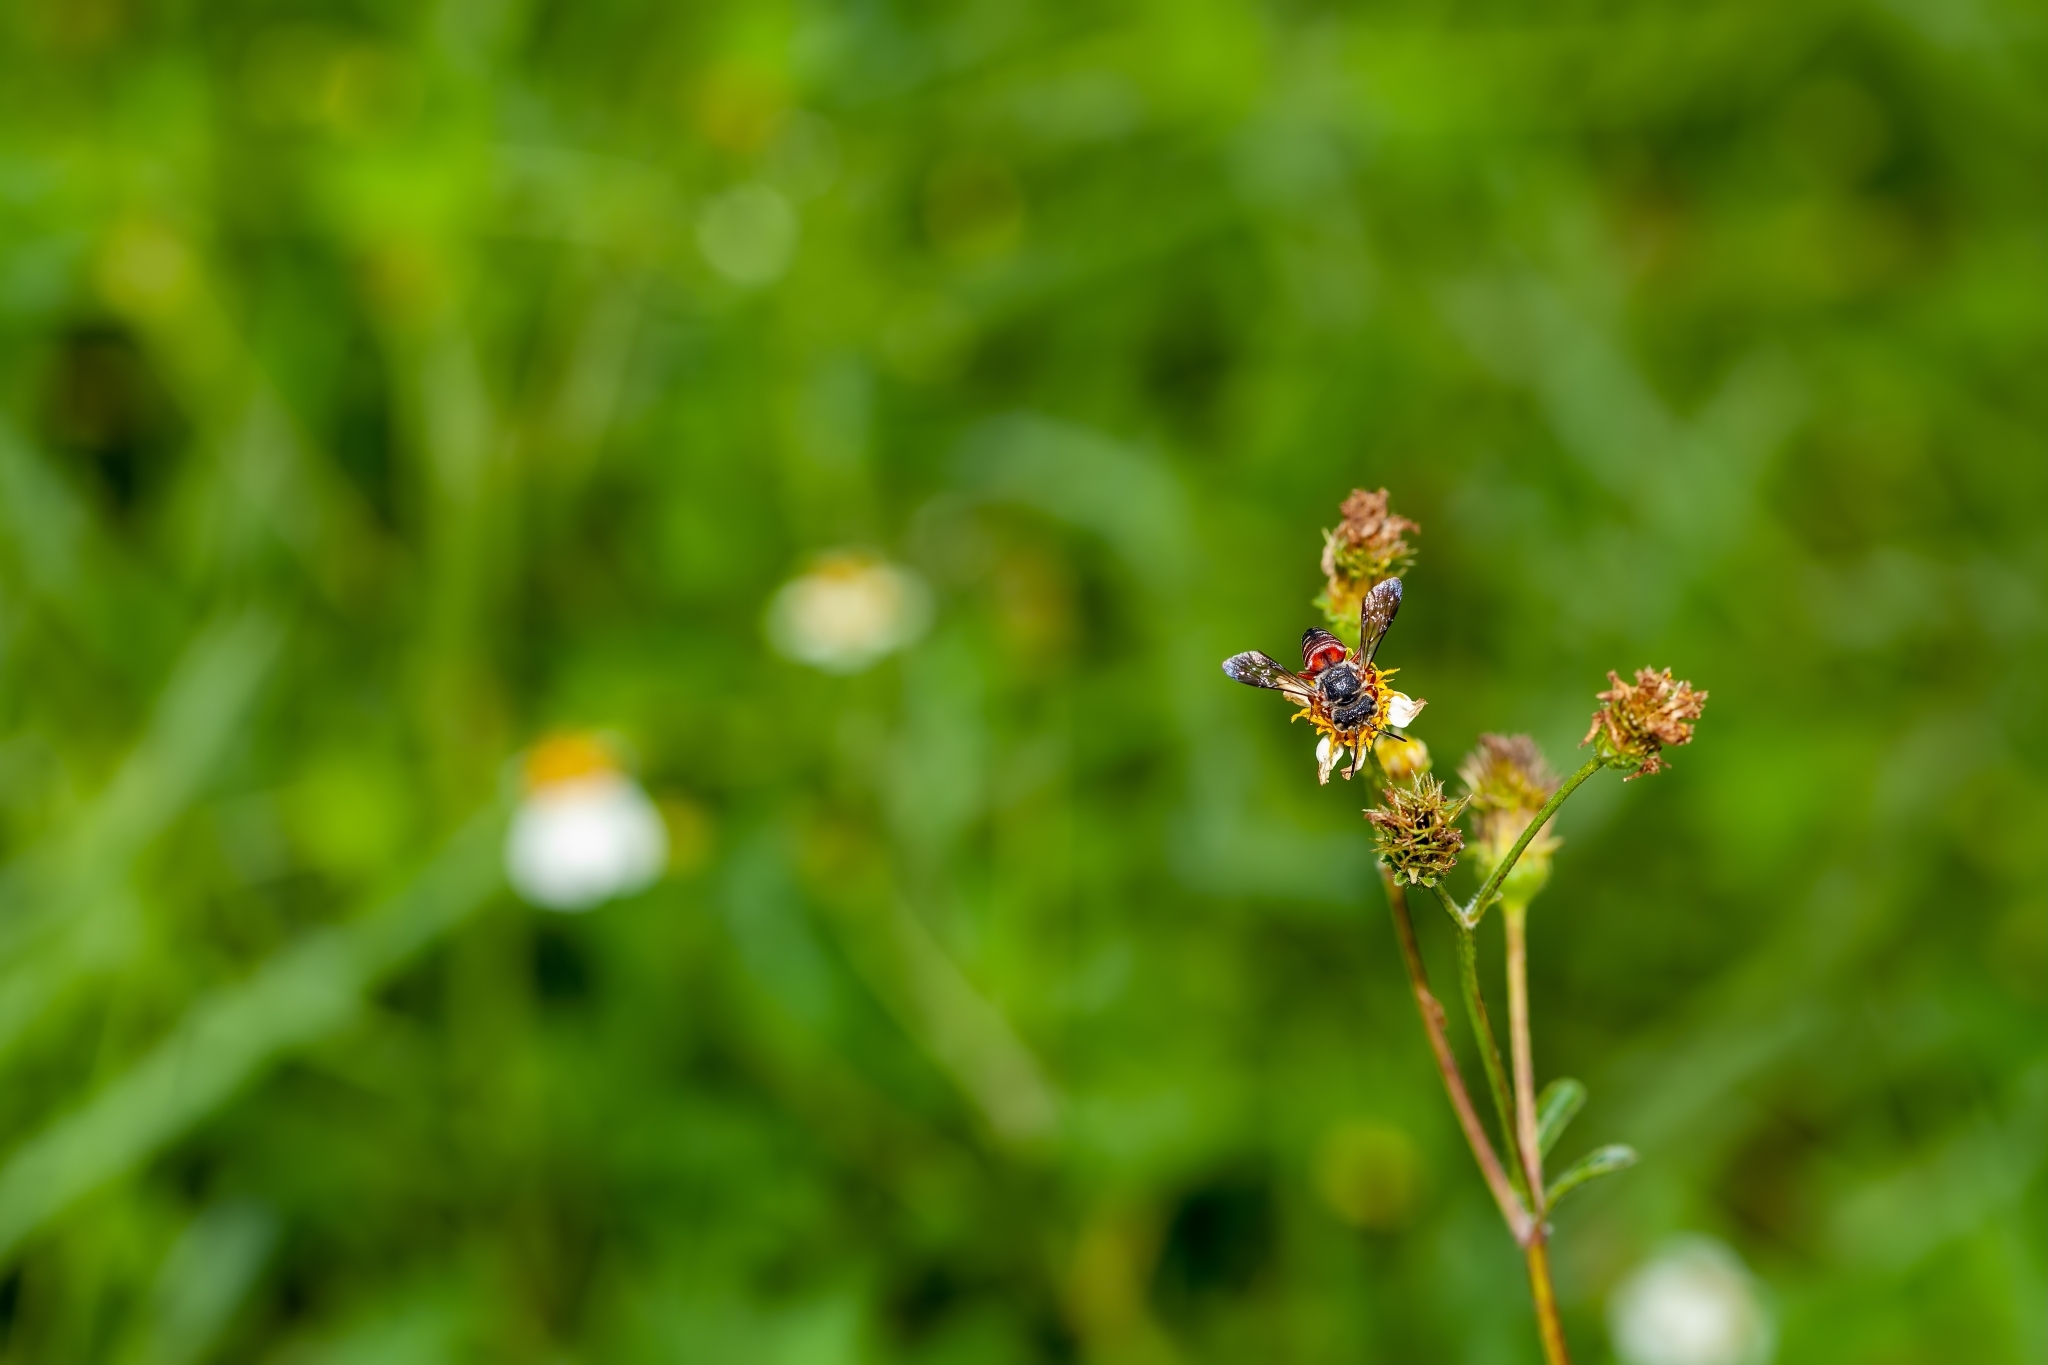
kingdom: Animalia
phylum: Arthropoda
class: Insecta
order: Hymenoptera
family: Megachilidae
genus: Coelioxys
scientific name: Coelioxys slossoni
